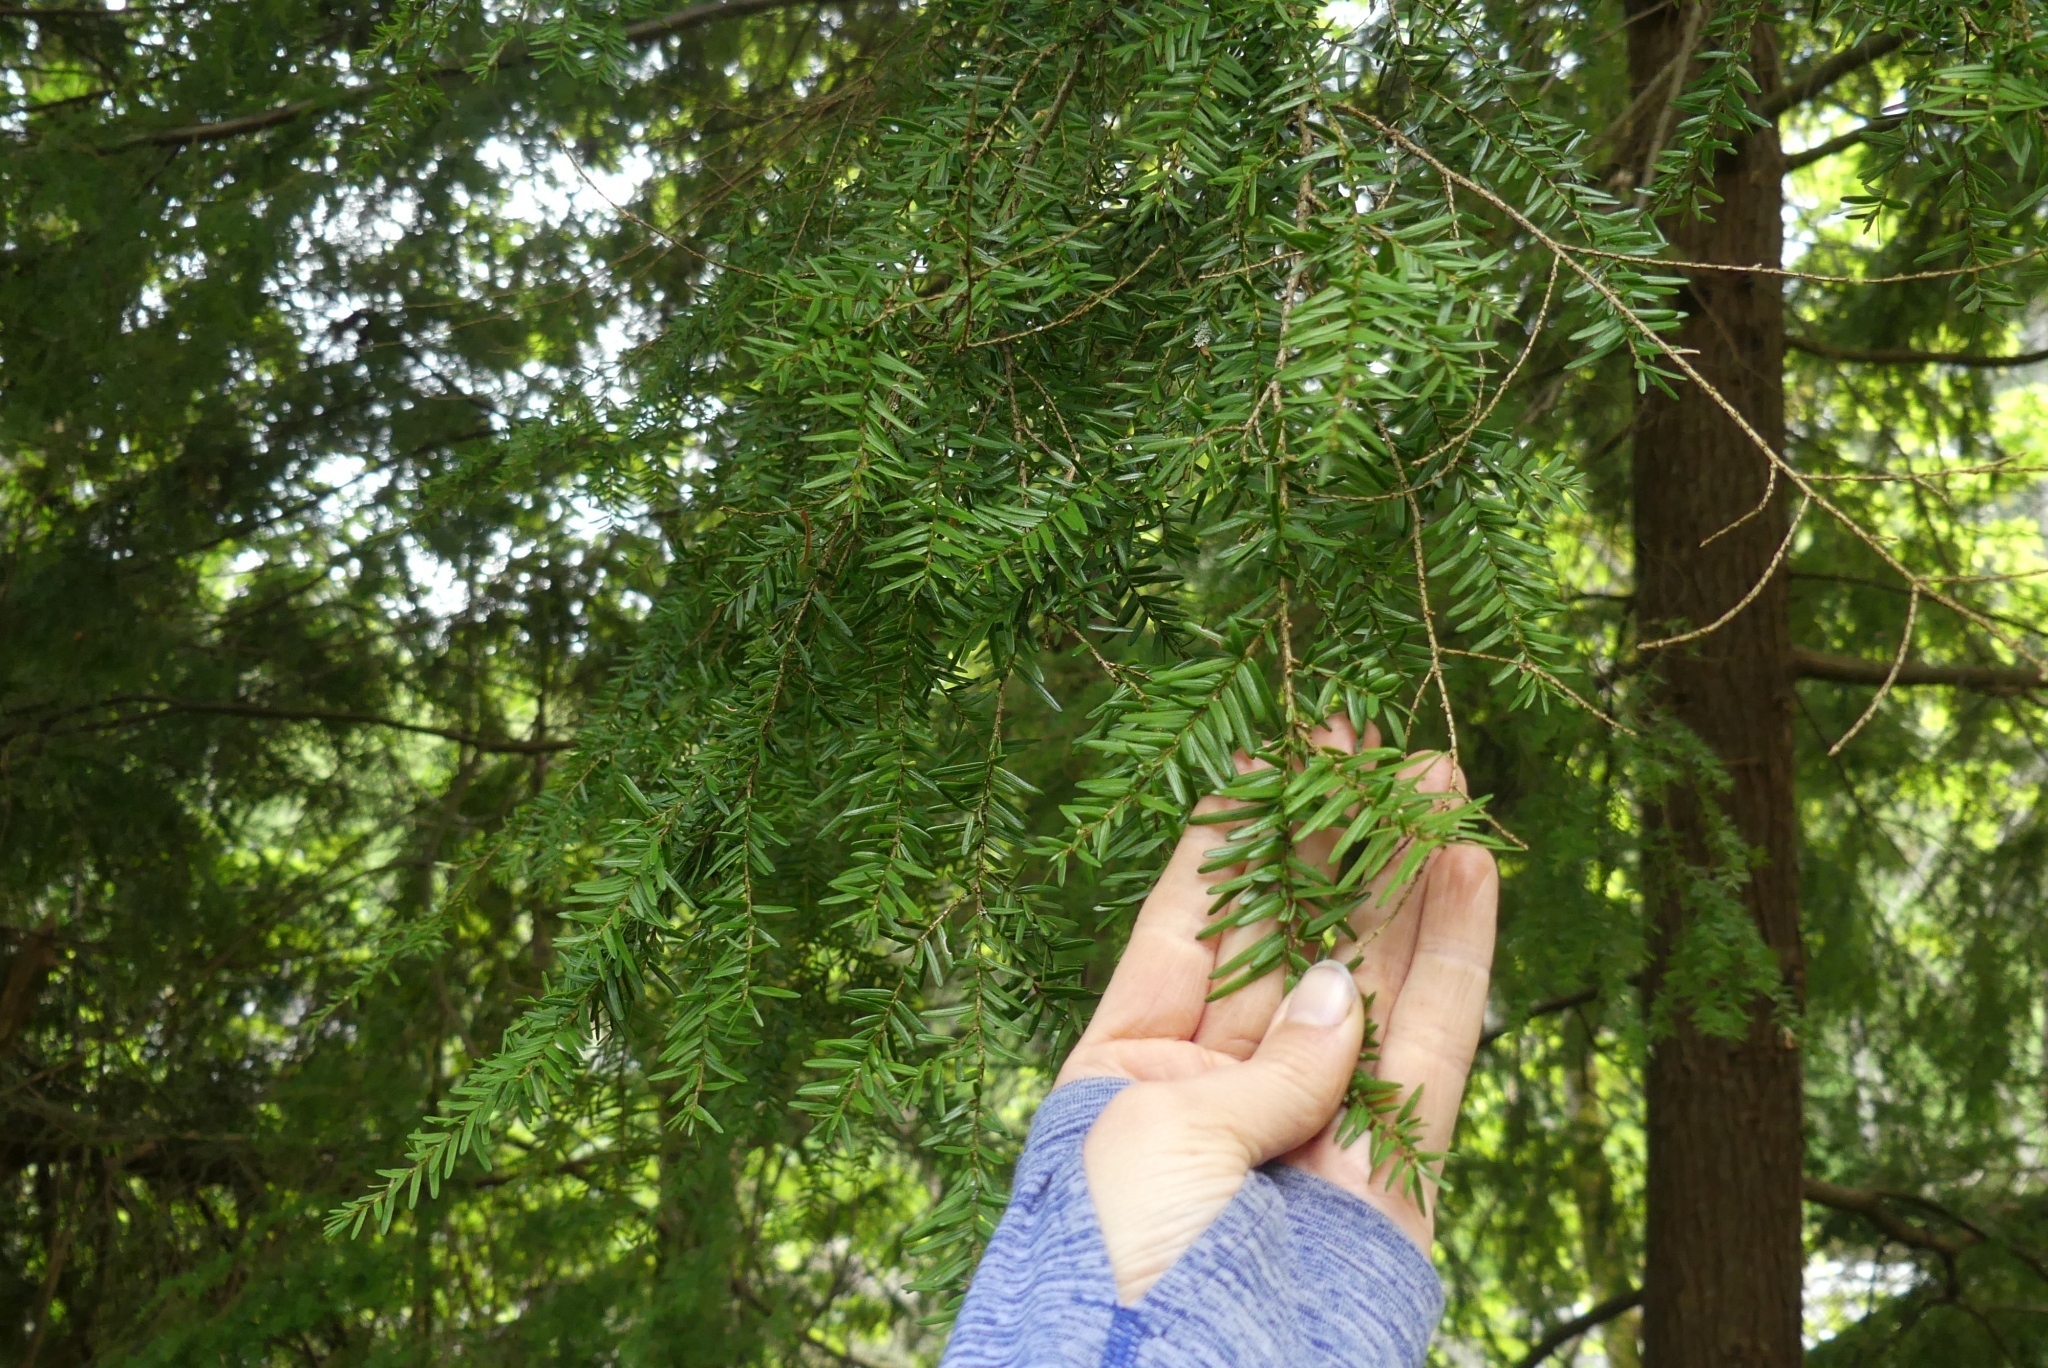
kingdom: Plantae
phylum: Tracheophyta
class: Pinopsida
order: Pinales
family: Pinaceae
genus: Tsuga
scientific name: Tsuga heterophylla
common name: Western hemlock
